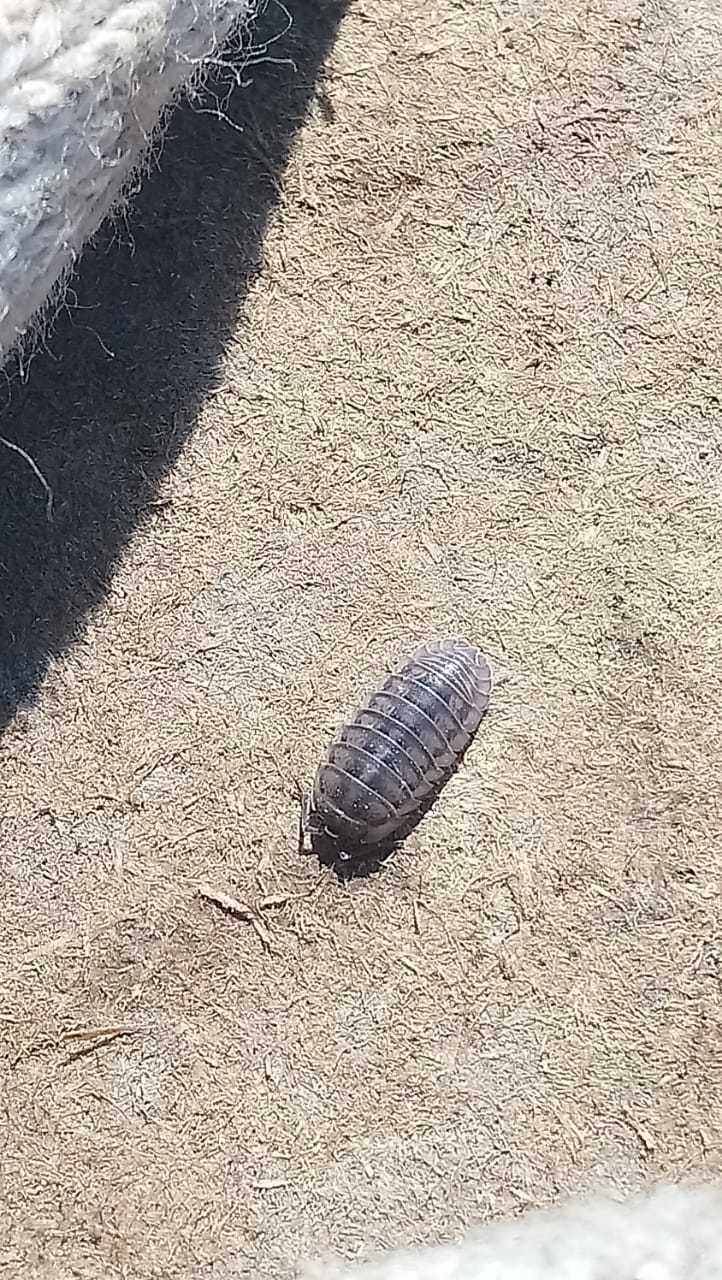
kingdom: Animalia
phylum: Arthropoda
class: Malacostraca
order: Isopoda
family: Armadillidiidae
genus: Armadillidium
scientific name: Armadillidium nasatum
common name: Isopod
